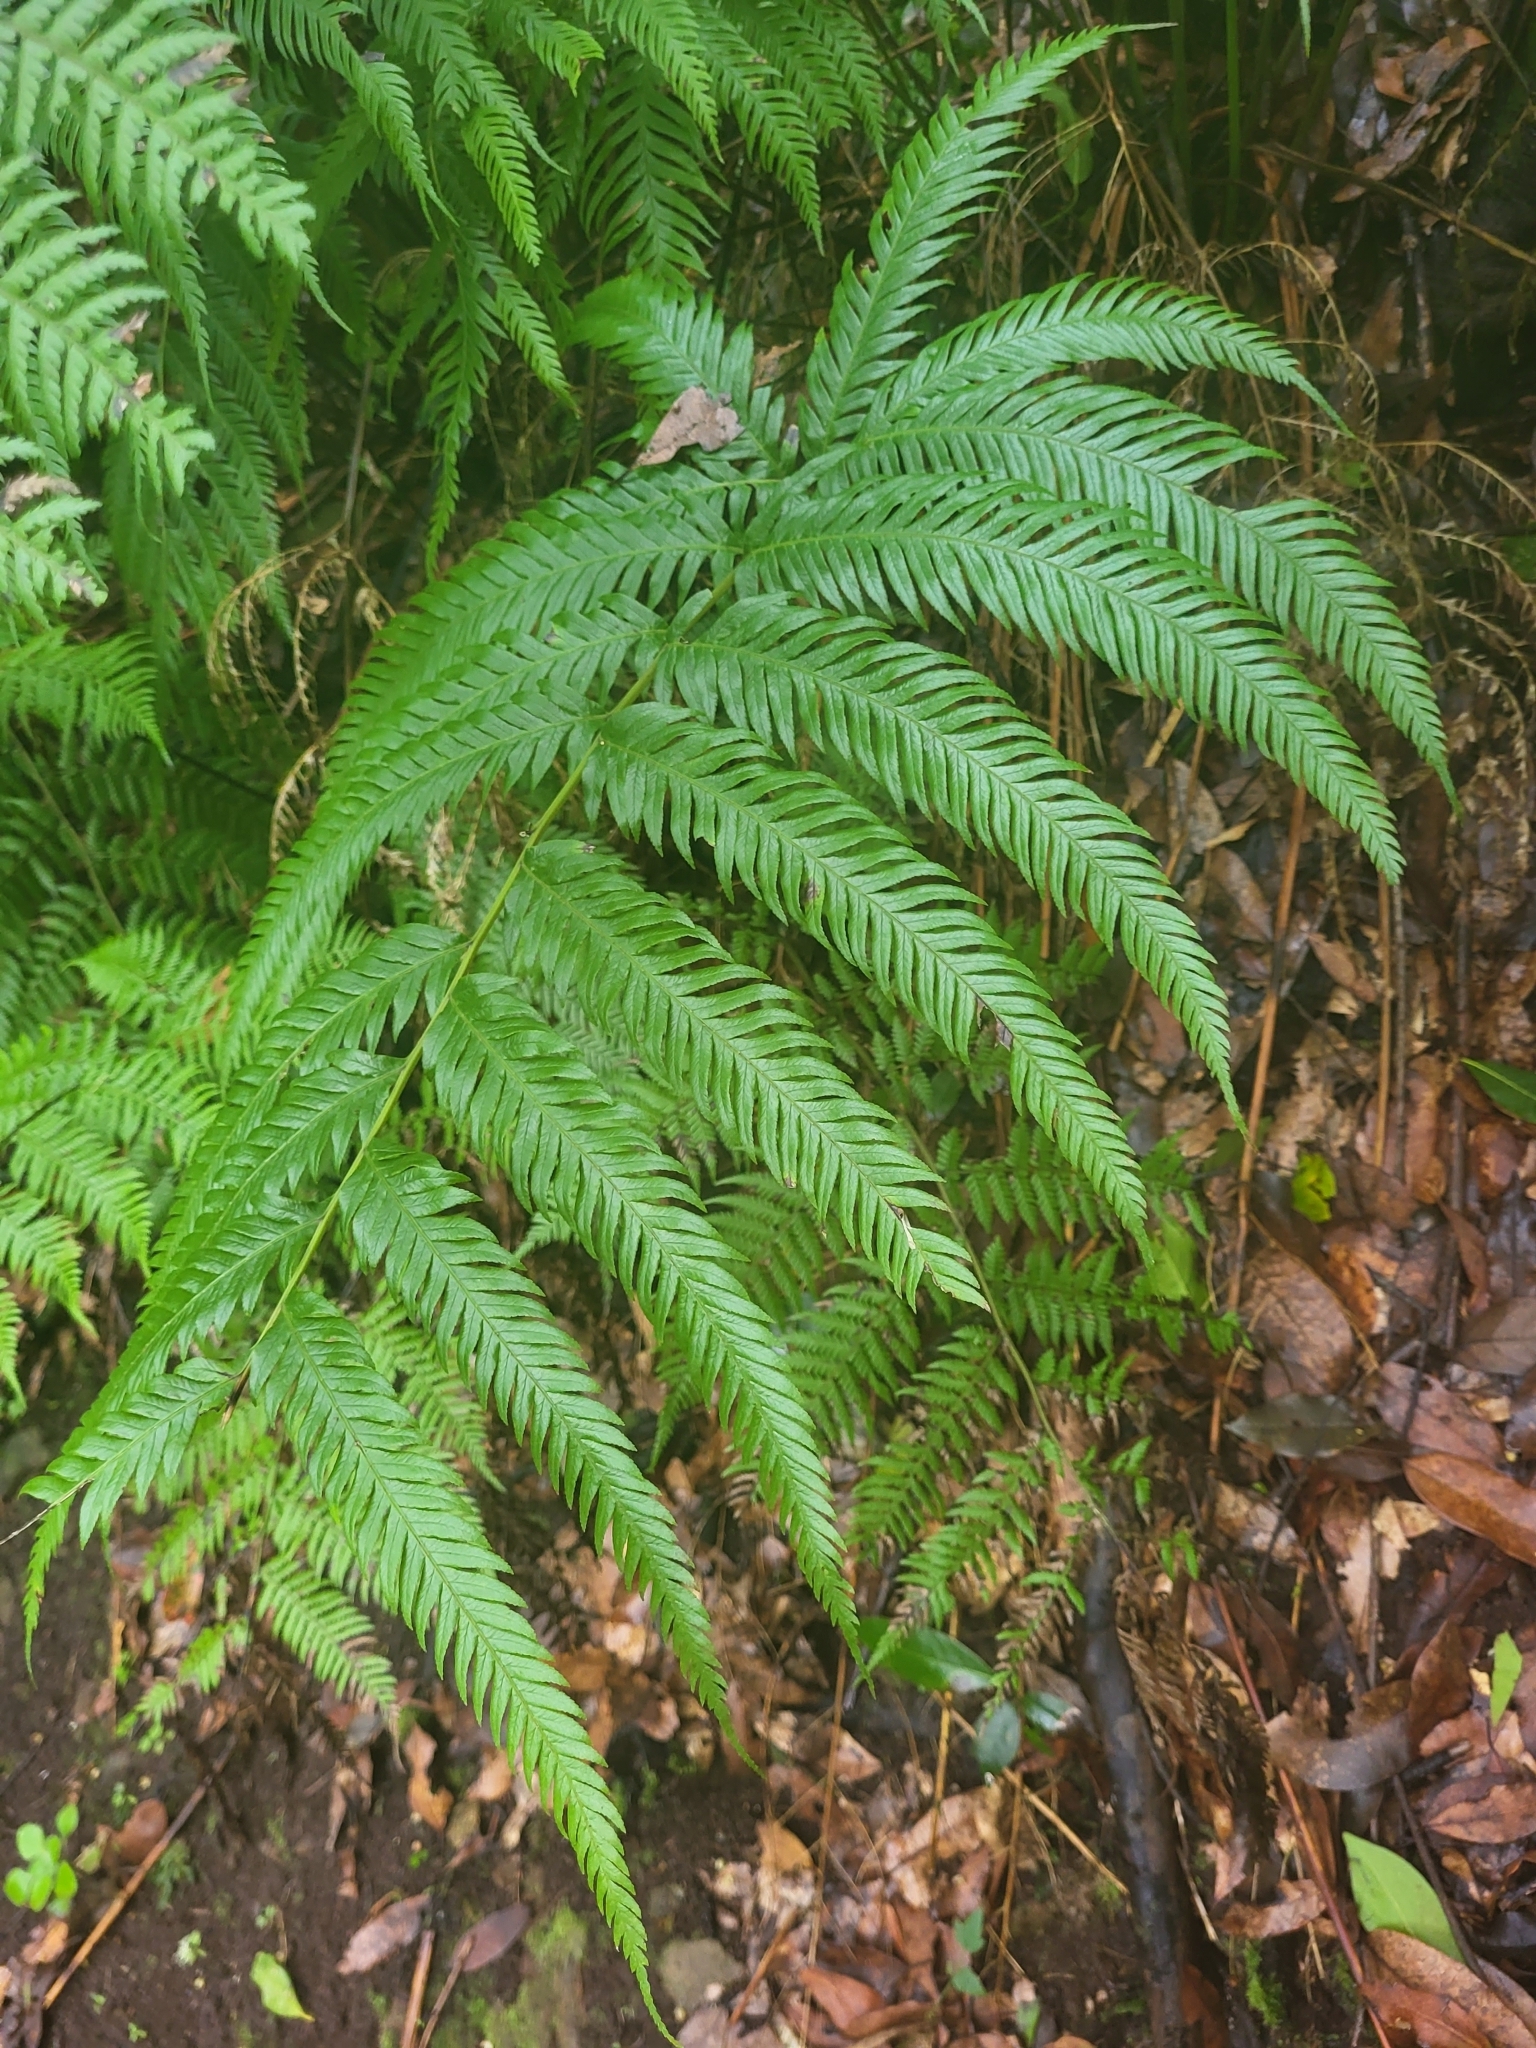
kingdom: Plantae
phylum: Tracheophyta
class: Polypodiopsida
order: Polypodiales
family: Pteridaceae
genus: Pteris
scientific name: Pteris incompleta
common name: Laurisilva brake
